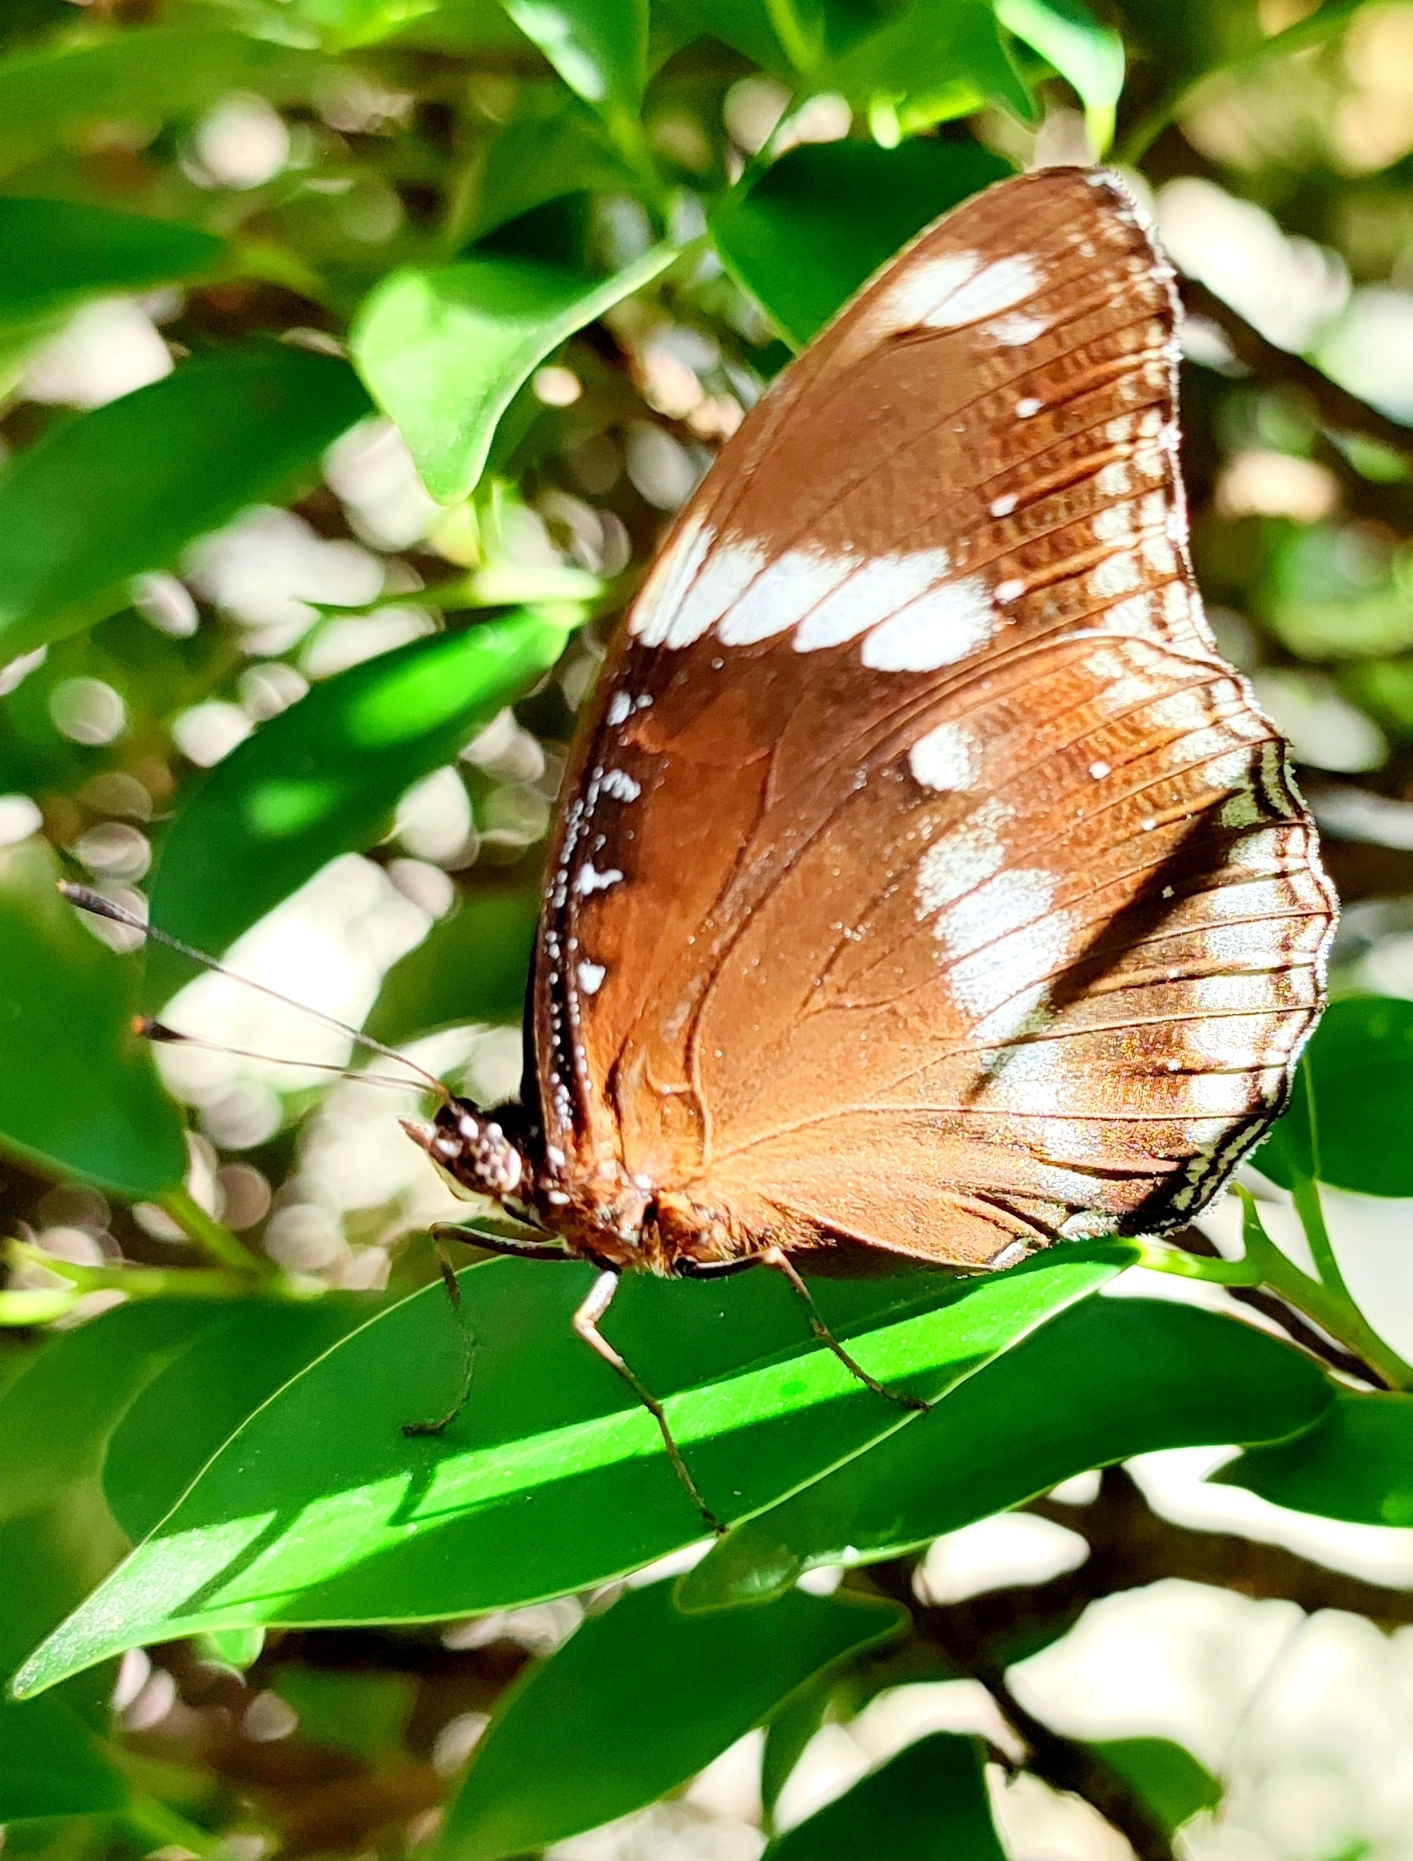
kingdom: Animalia
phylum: Arthropoda
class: Insecta
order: Lepidoptera
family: Nymphalidae
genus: Hypolimnas
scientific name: Hypolimnas bolina
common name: Great eggfly
